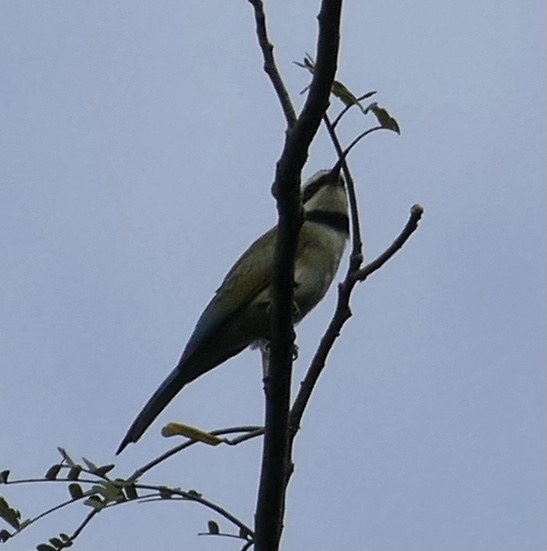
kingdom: Animalia
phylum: Chordata
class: Aves
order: Coraciiformes
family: Meropidae
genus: Merops
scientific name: Merops albicollis
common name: White-throated bee-eater
